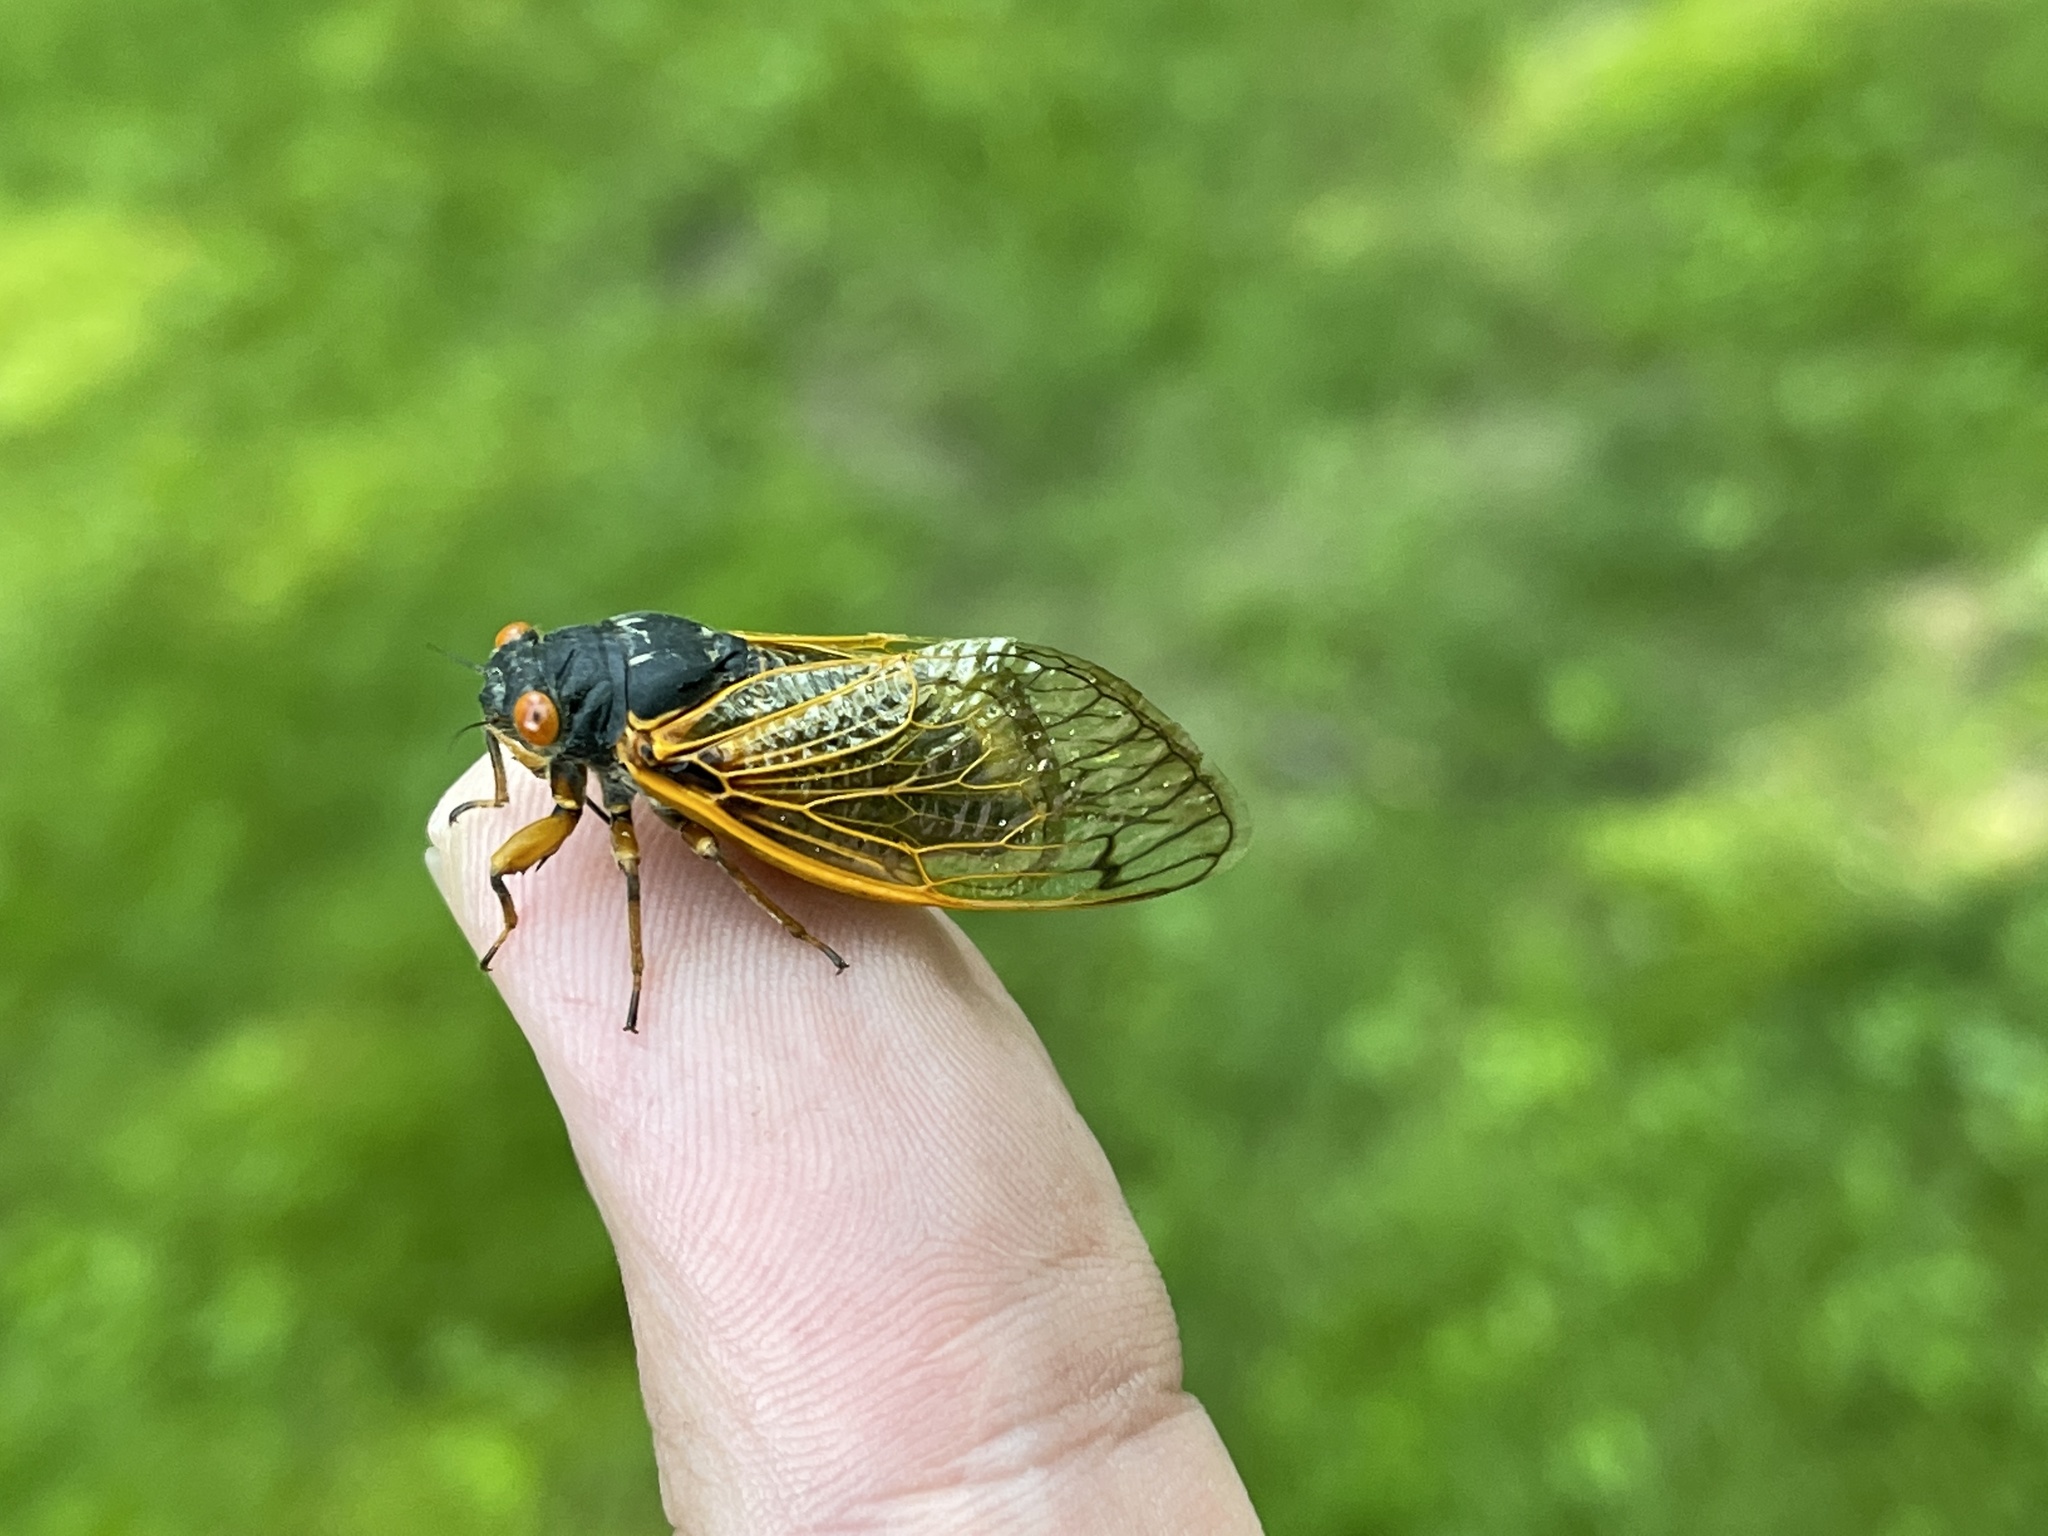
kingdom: Animalia
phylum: Arthropoda
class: Insecta
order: Hemiptera
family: Cicadidae
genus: Magicicada
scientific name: Magicicada
